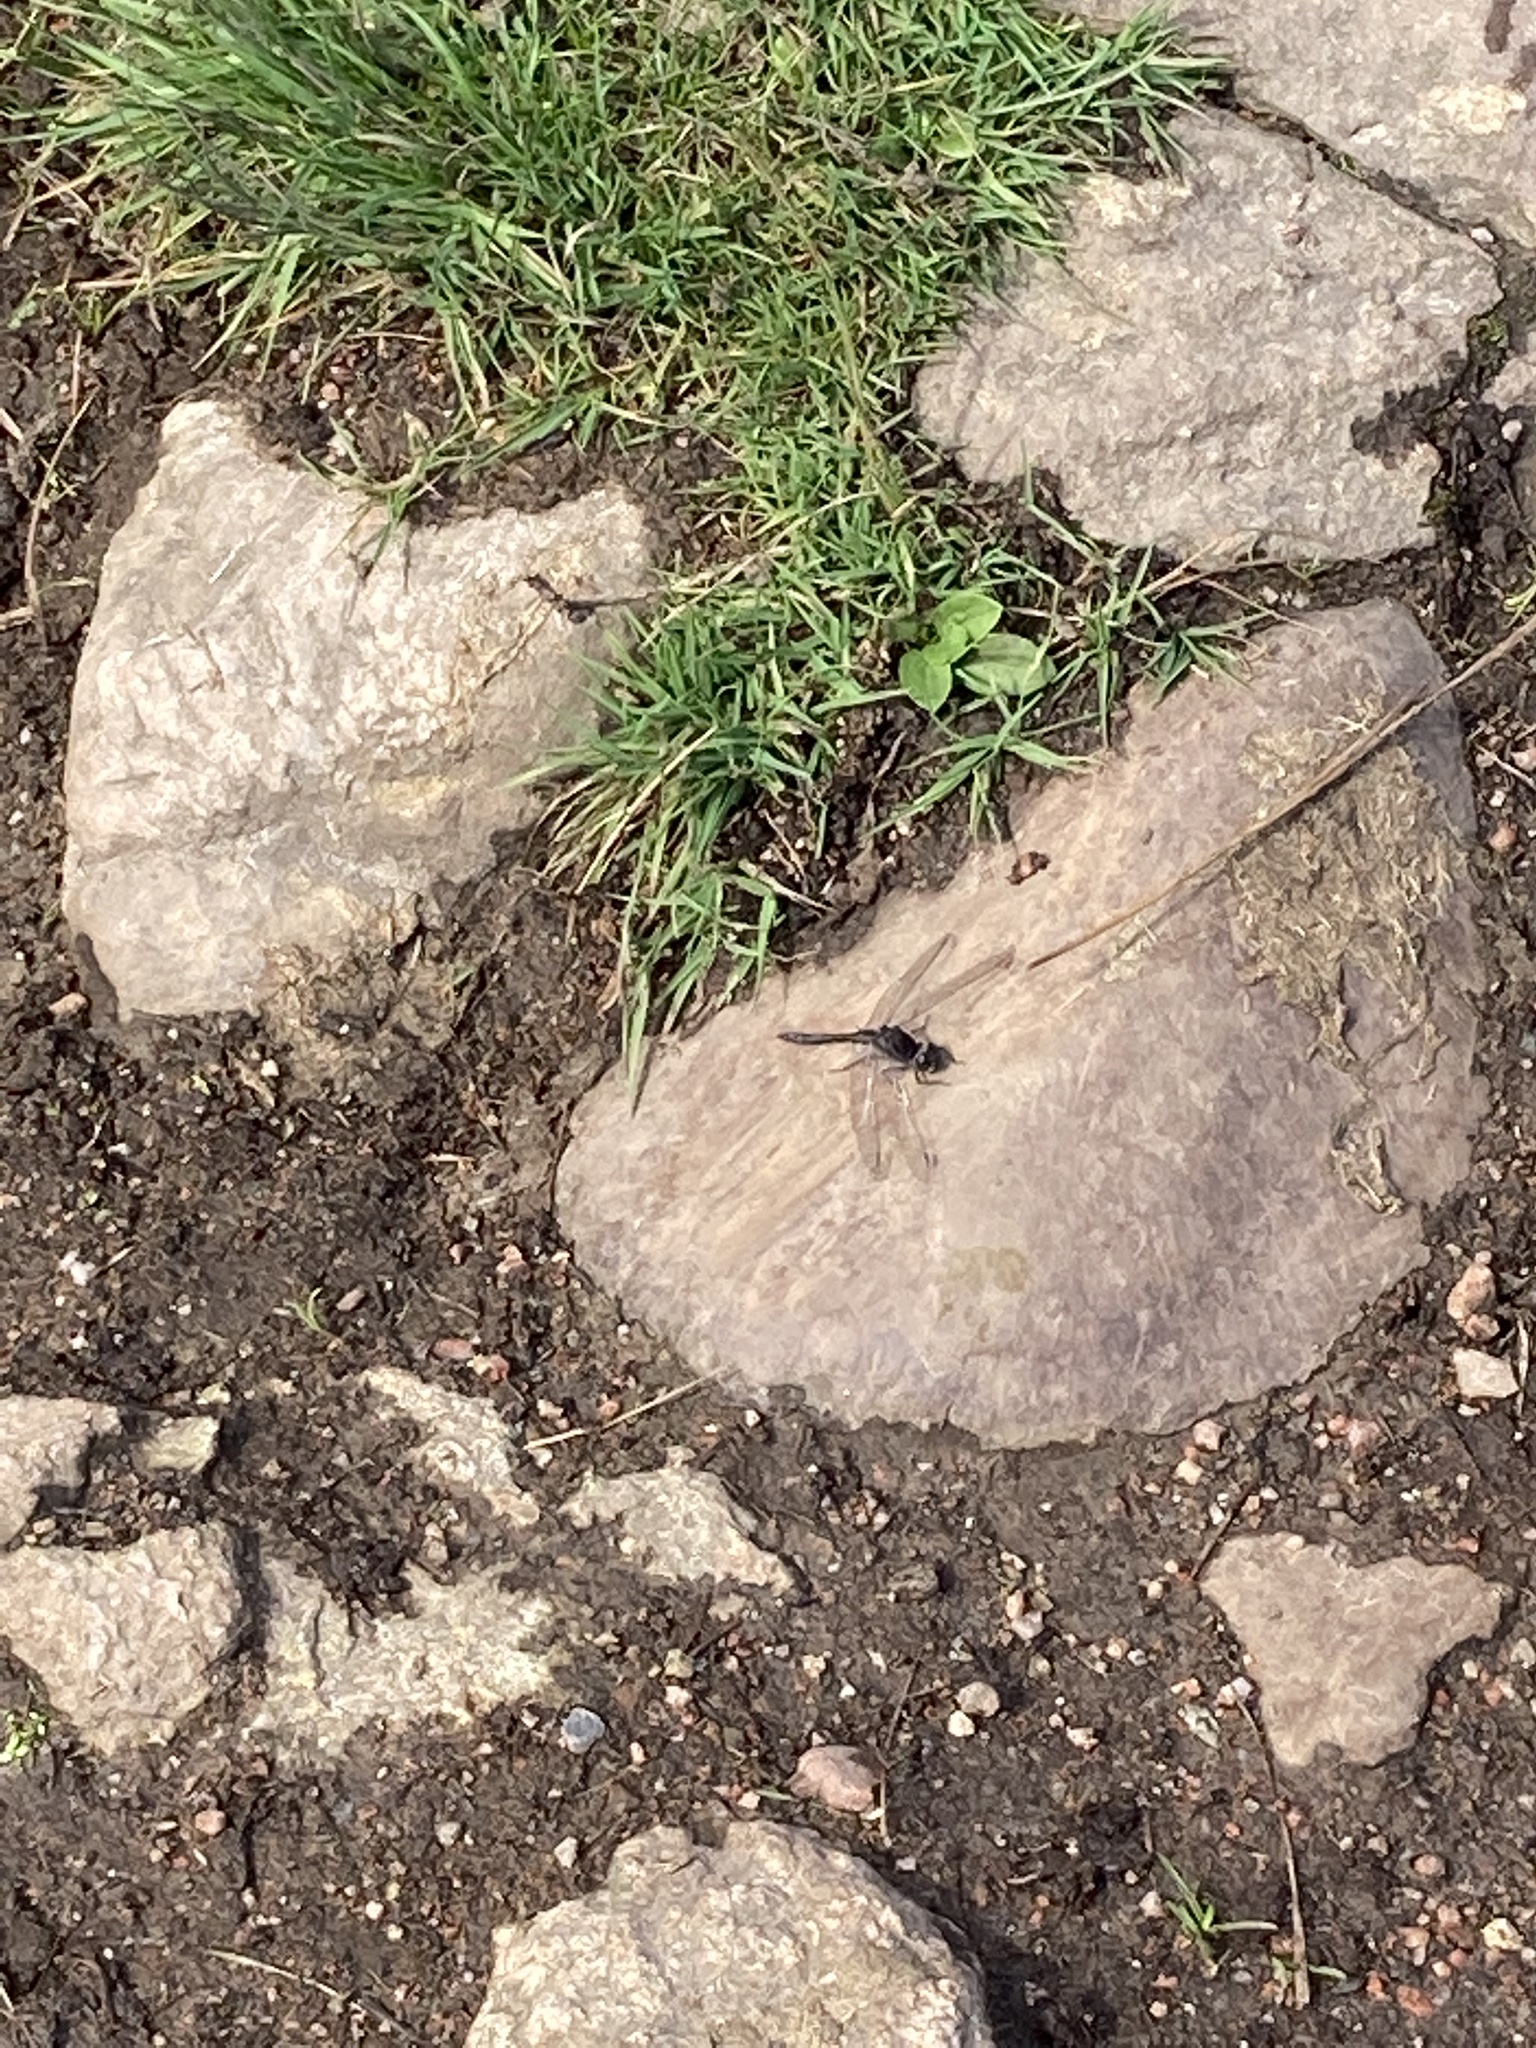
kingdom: Animalia
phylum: Arthropoda
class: Insecta
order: Odonata
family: Libellulidae
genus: Sympetrum
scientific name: Sympetrum danae
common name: Black darter
